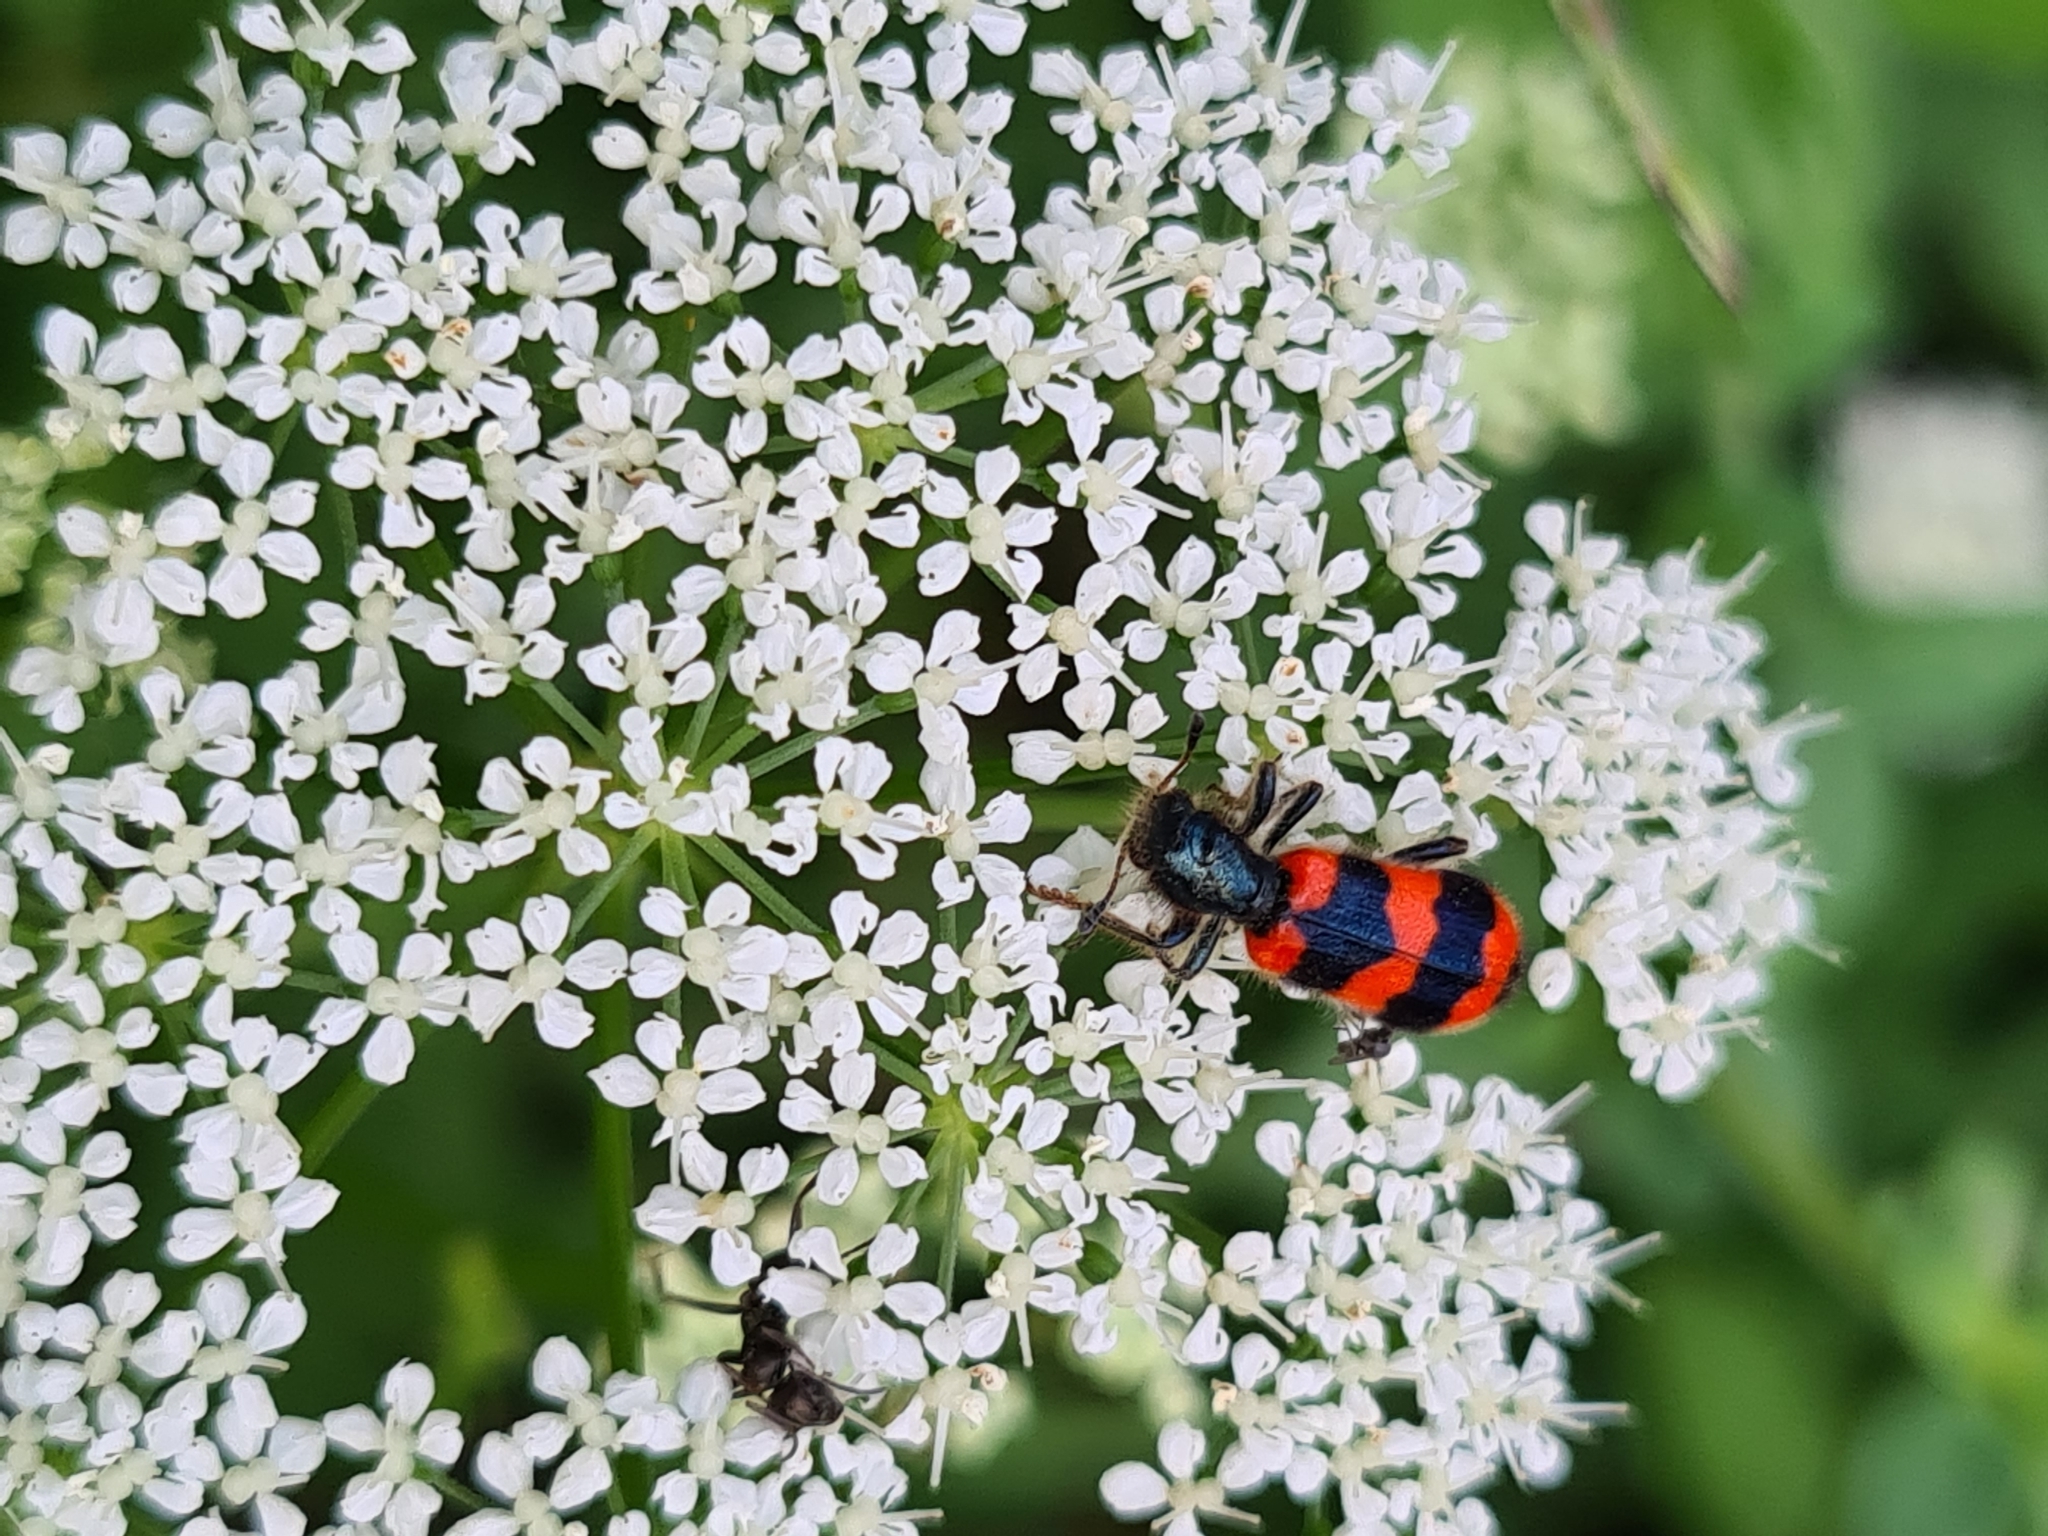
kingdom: Animalia
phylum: Arthropoda
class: Insecta
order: Coleoptera
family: Cleridae
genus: Trichodes
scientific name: Trichodes apiarius
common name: Bee-eating beetle
